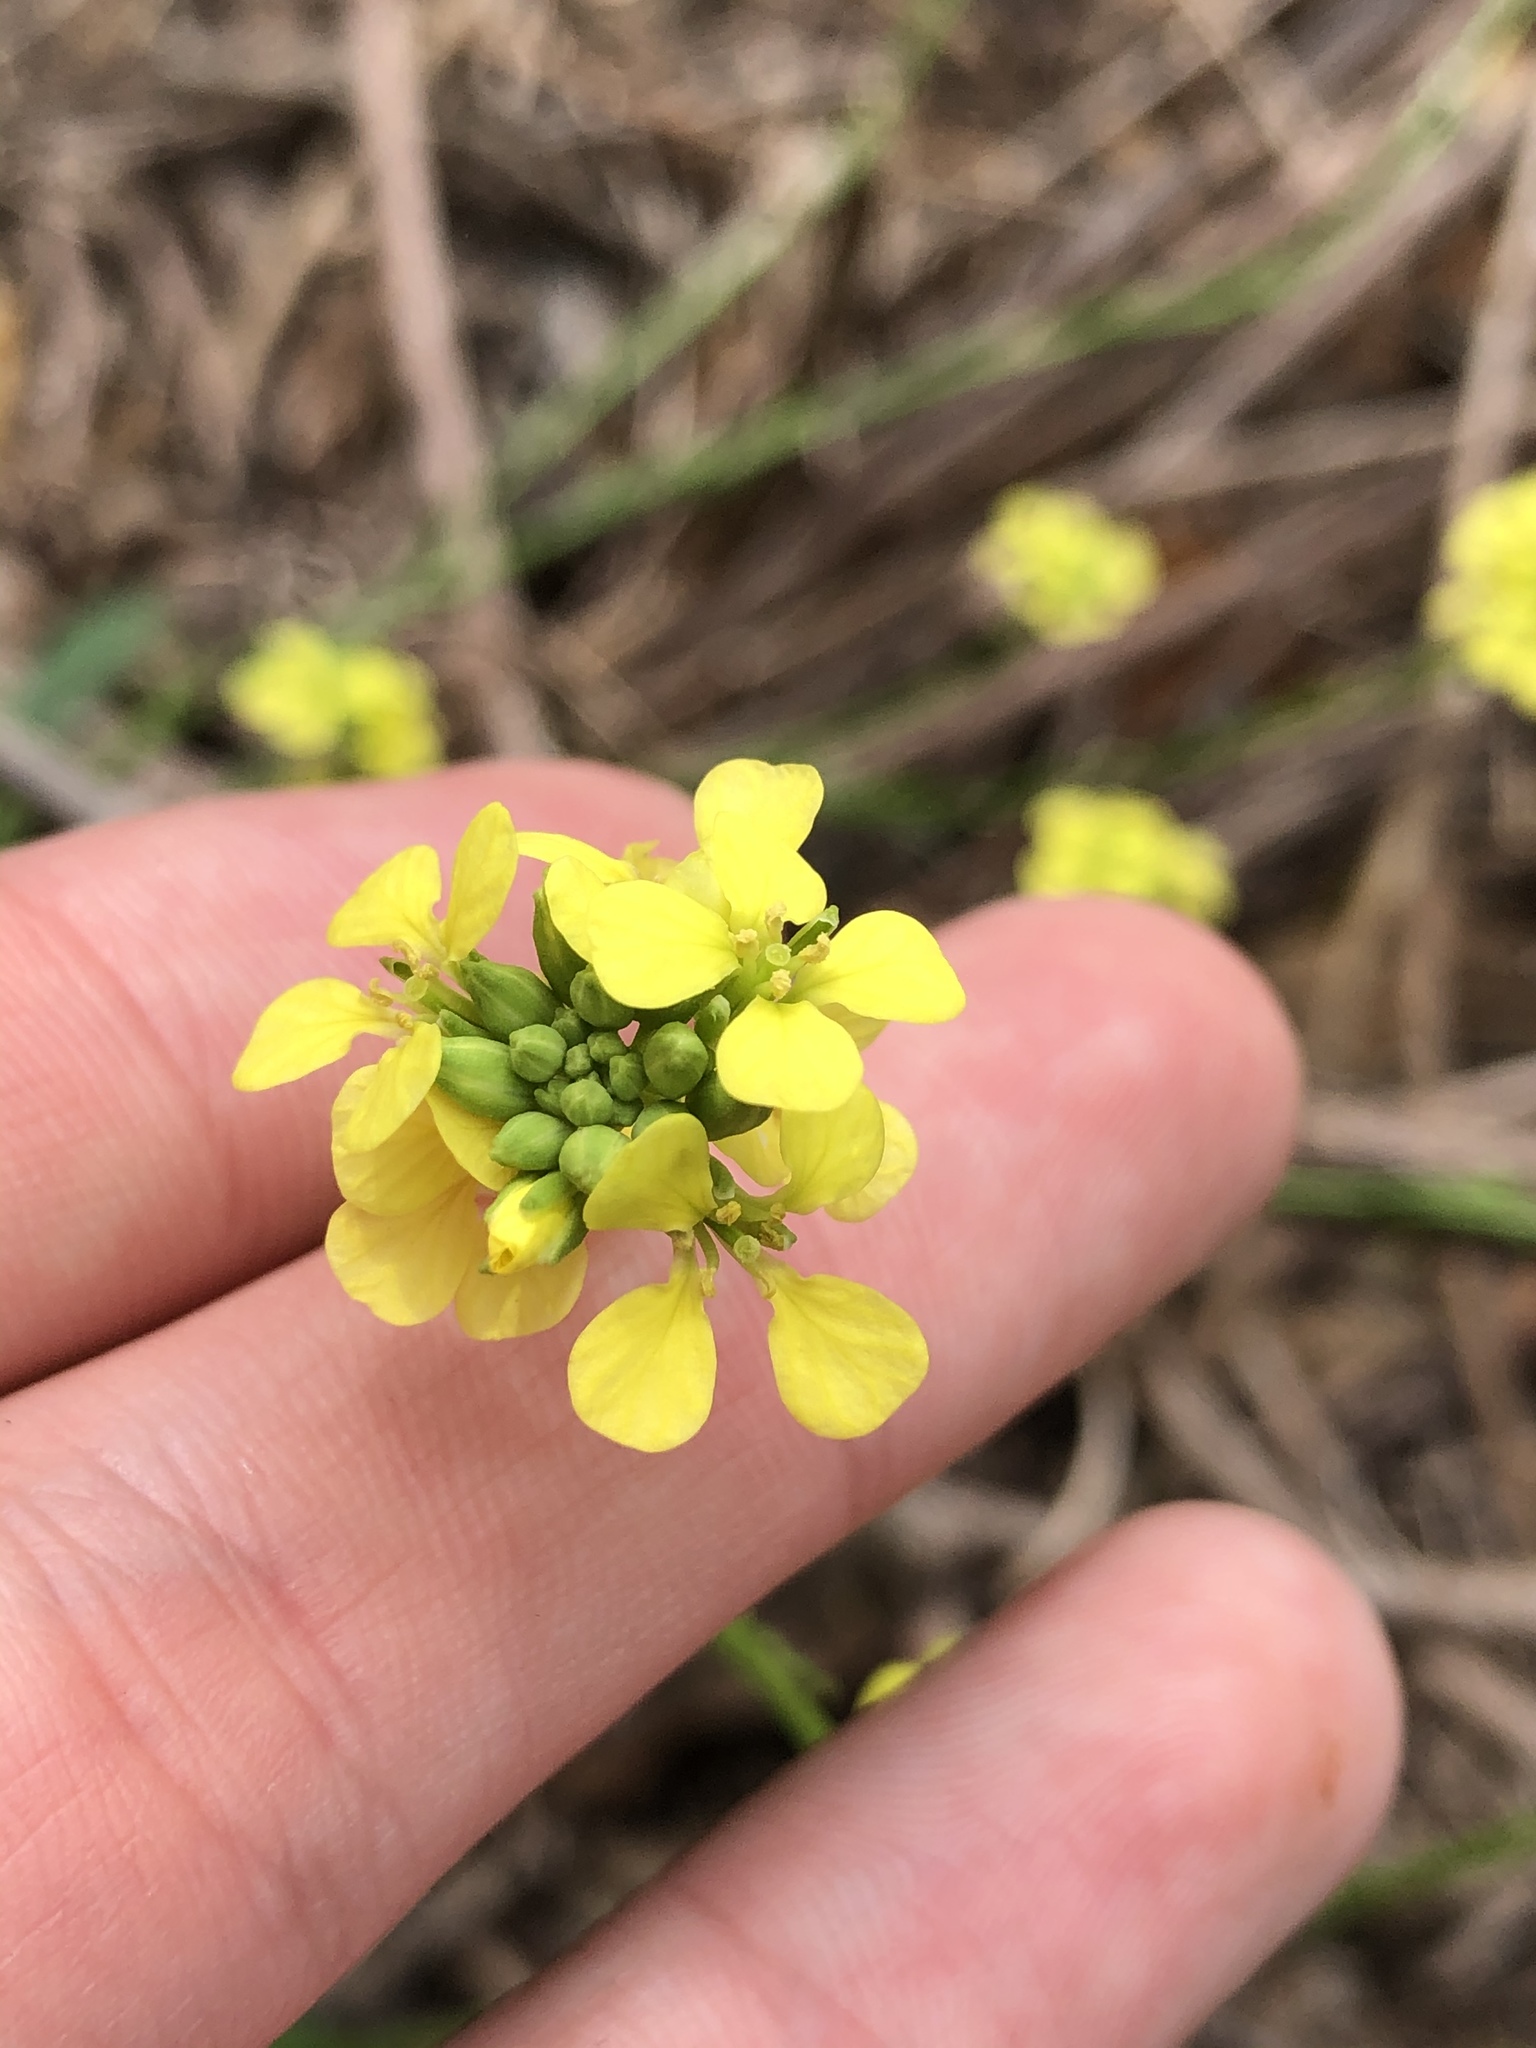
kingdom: Plantae
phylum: Tracheophyta
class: Magnoliopsida
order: Brassicales
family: Brassicaceae
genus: Rapistrum
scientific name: Rapistrum rugosum
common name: Annual bastardcabbage
